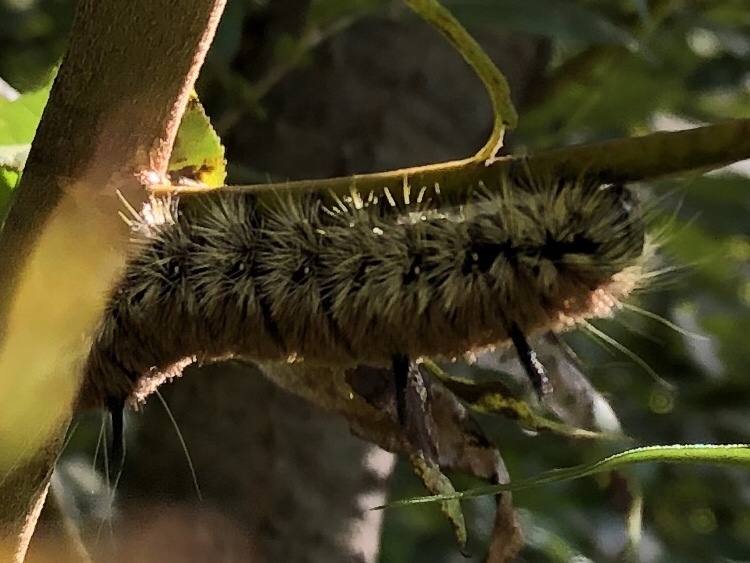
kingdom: Animalia
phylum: Arthropoda
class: Insecta
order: Lepidoptera
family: Noctuidae
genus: Acronicta
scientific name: Acronicta insita
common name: Large gray dagger
